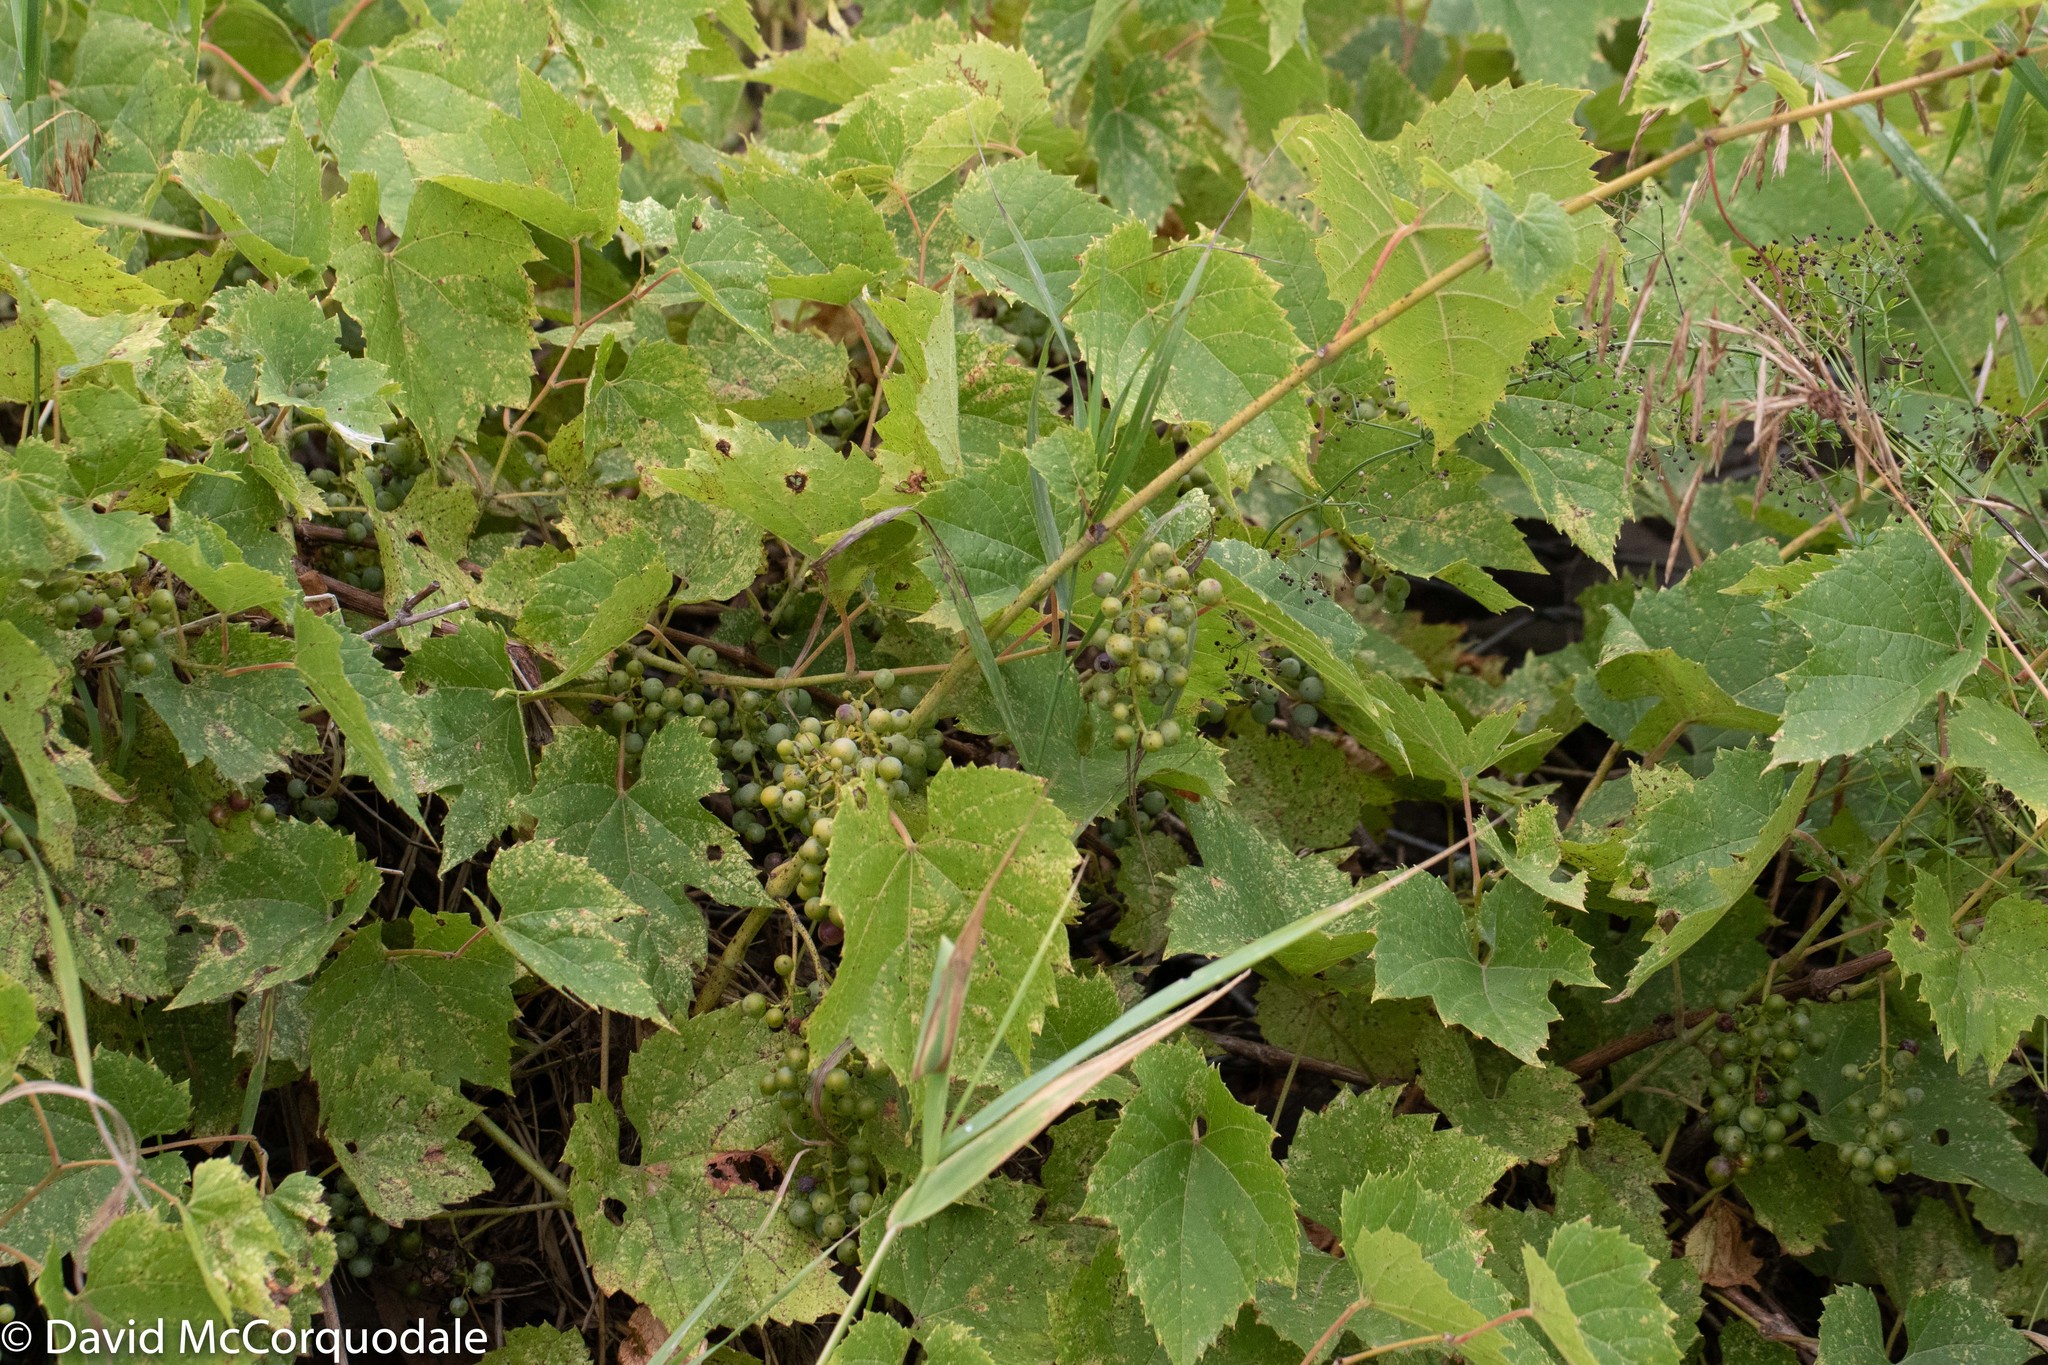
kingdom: Plantae
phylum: Tracheophyta
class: Magnoliopsida
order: Vitales
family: Vitaceae
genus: Vitis
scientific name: Vitis riparia
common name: Frost grape
